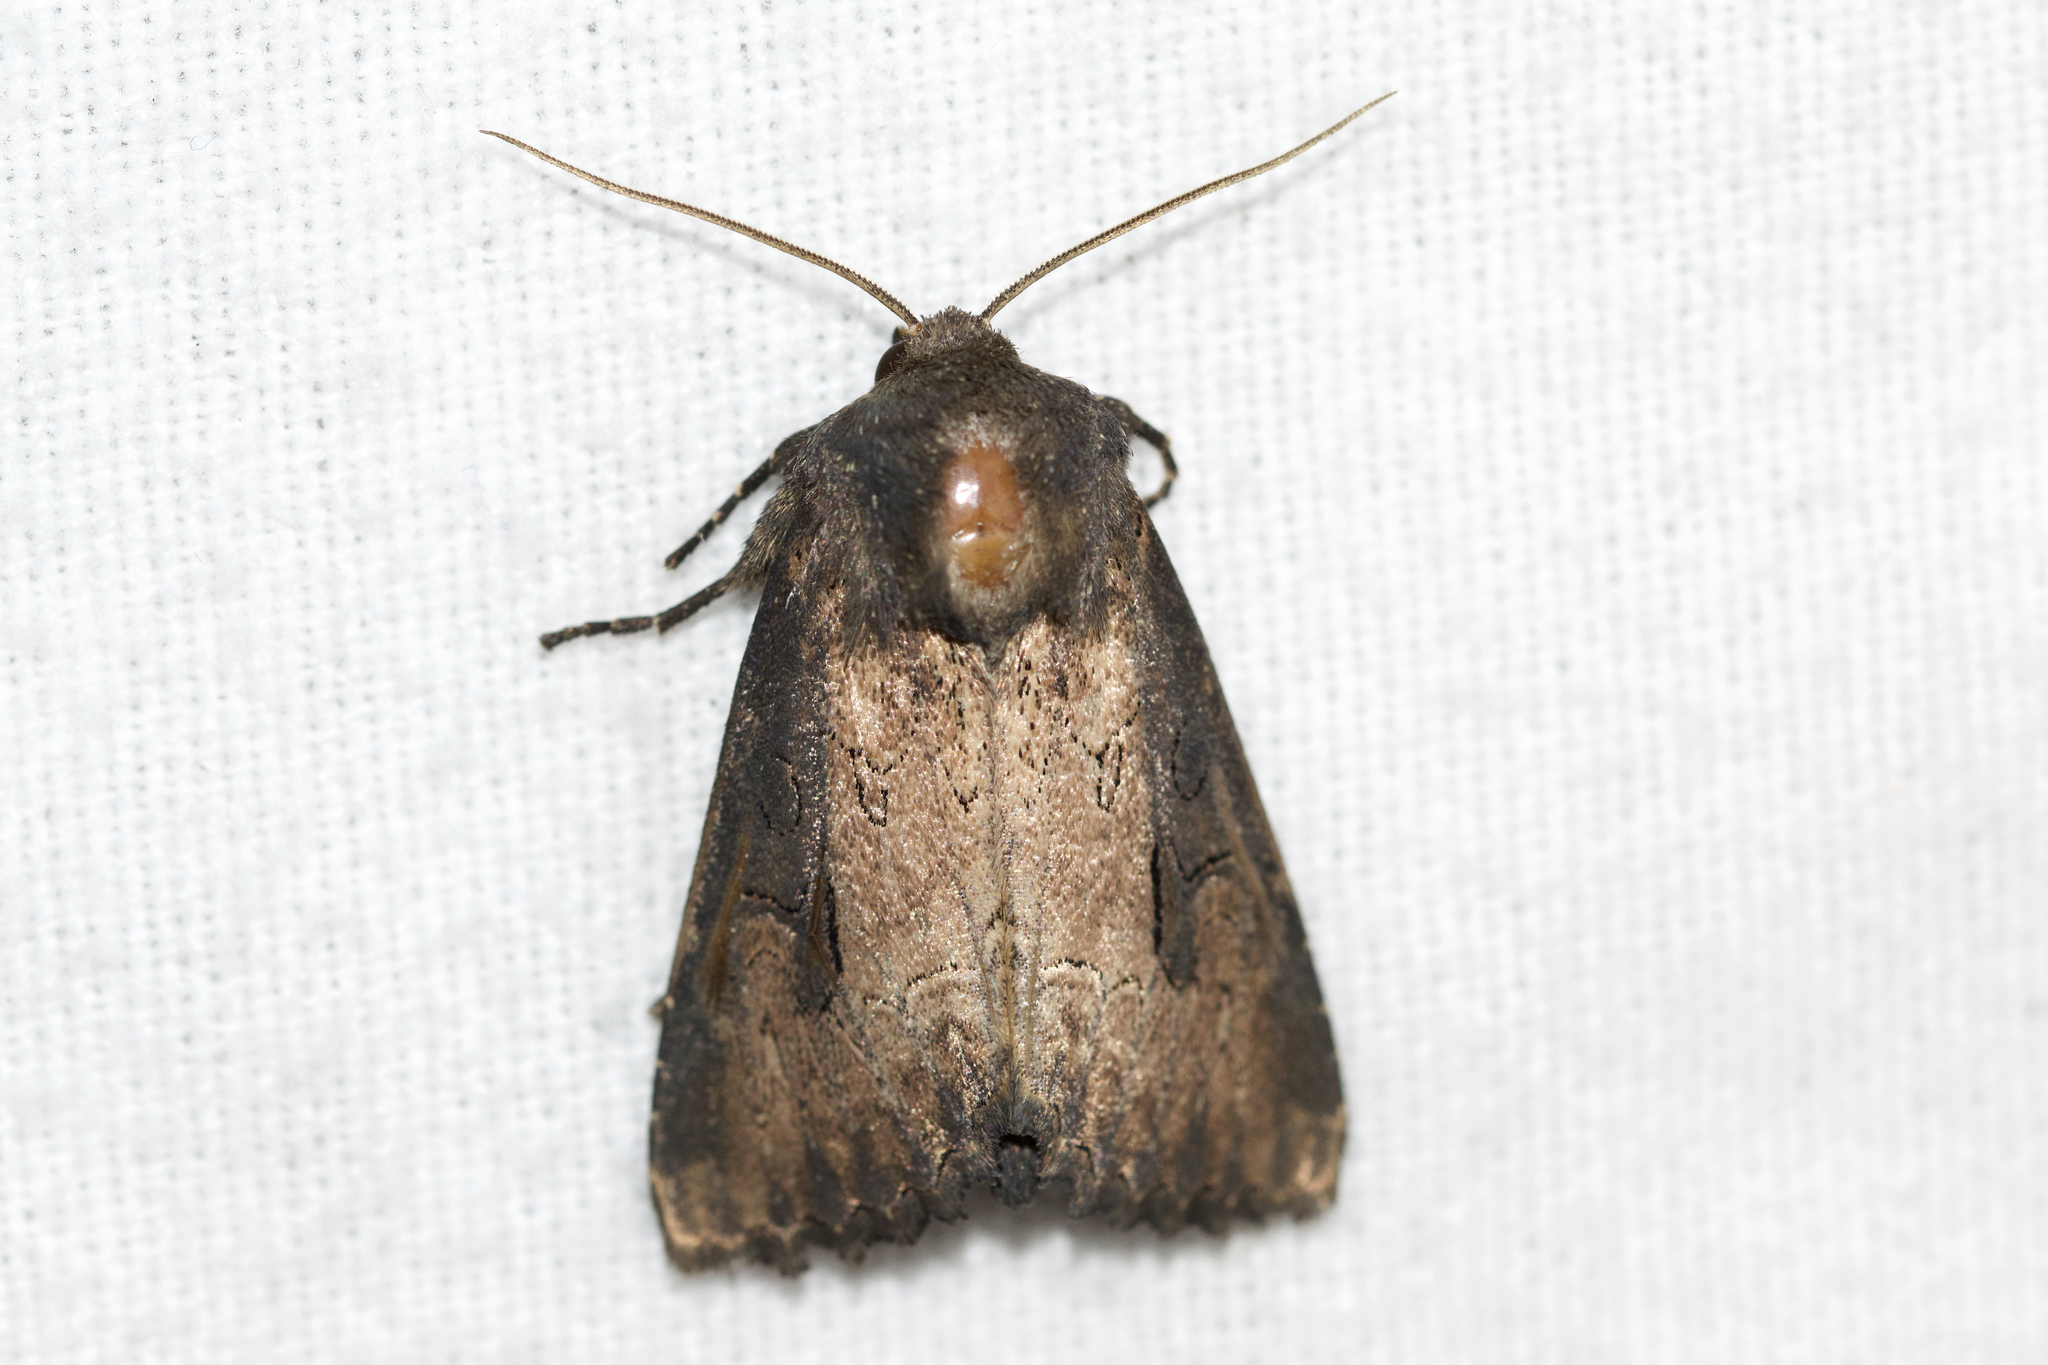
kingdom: Animalia
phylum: Arthropoda
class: Insecta
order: Lepidoptera
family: Noctuidae
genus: Macronoctua
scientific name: Macronoctua onusta
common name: Iris borer
